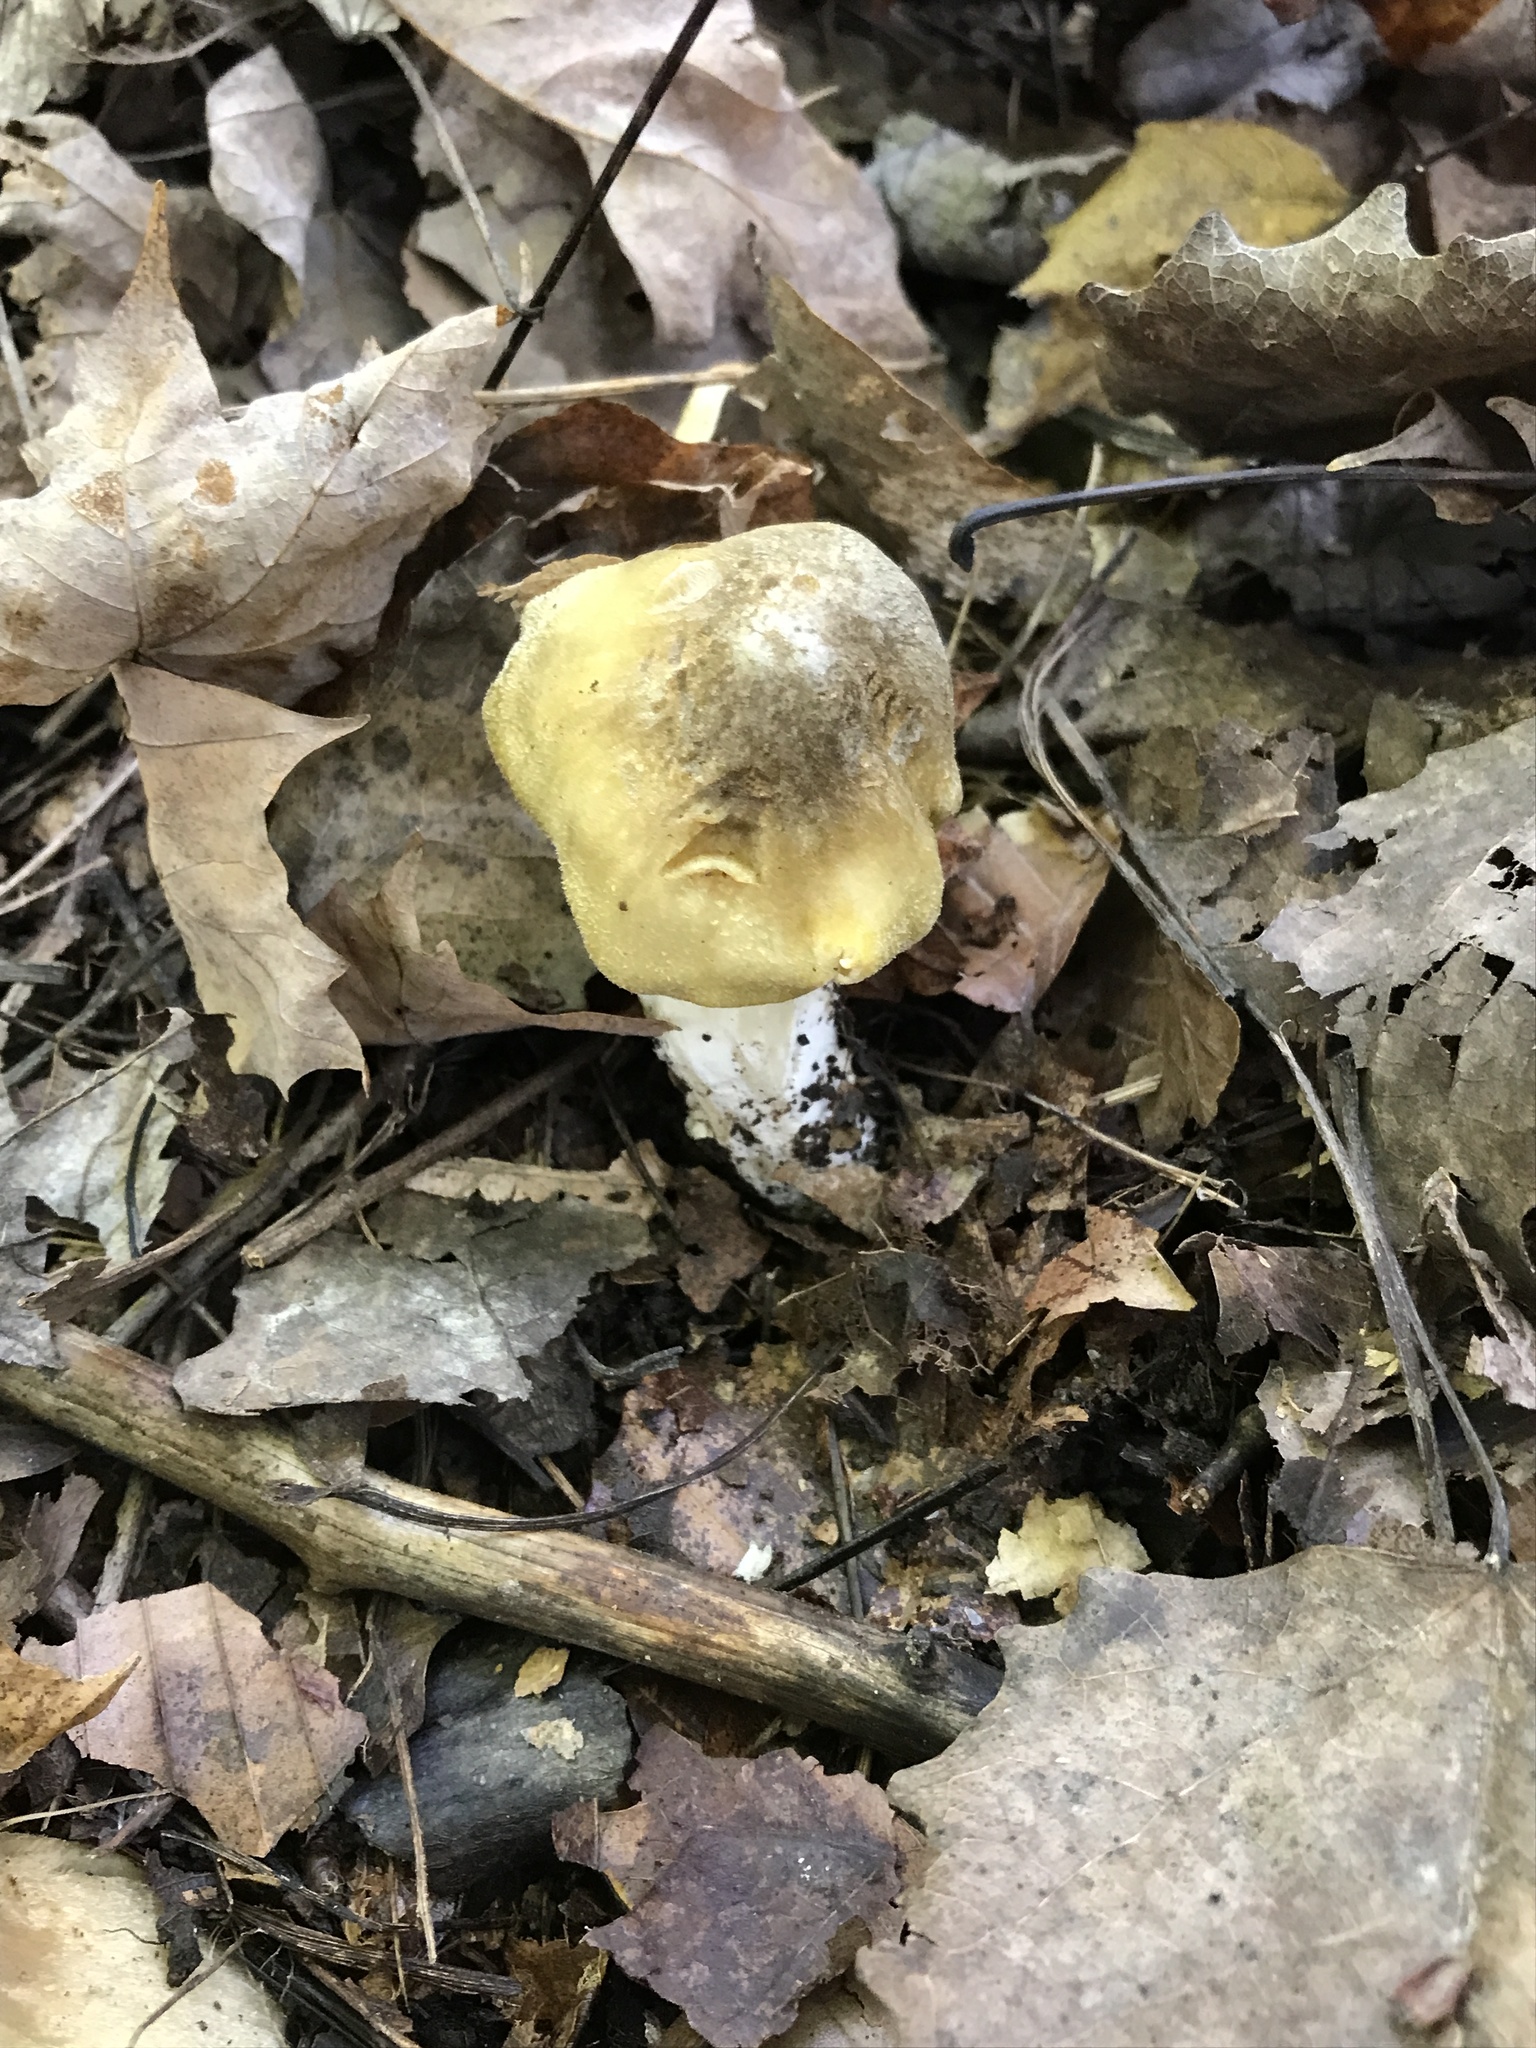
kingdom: Fungi
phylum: Basidiomycota
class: Agaricomycetes
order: Agaricales
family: Tricholomataceae
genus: Tricholoma
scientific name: Tricholoma equestre
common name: Yellow knight
